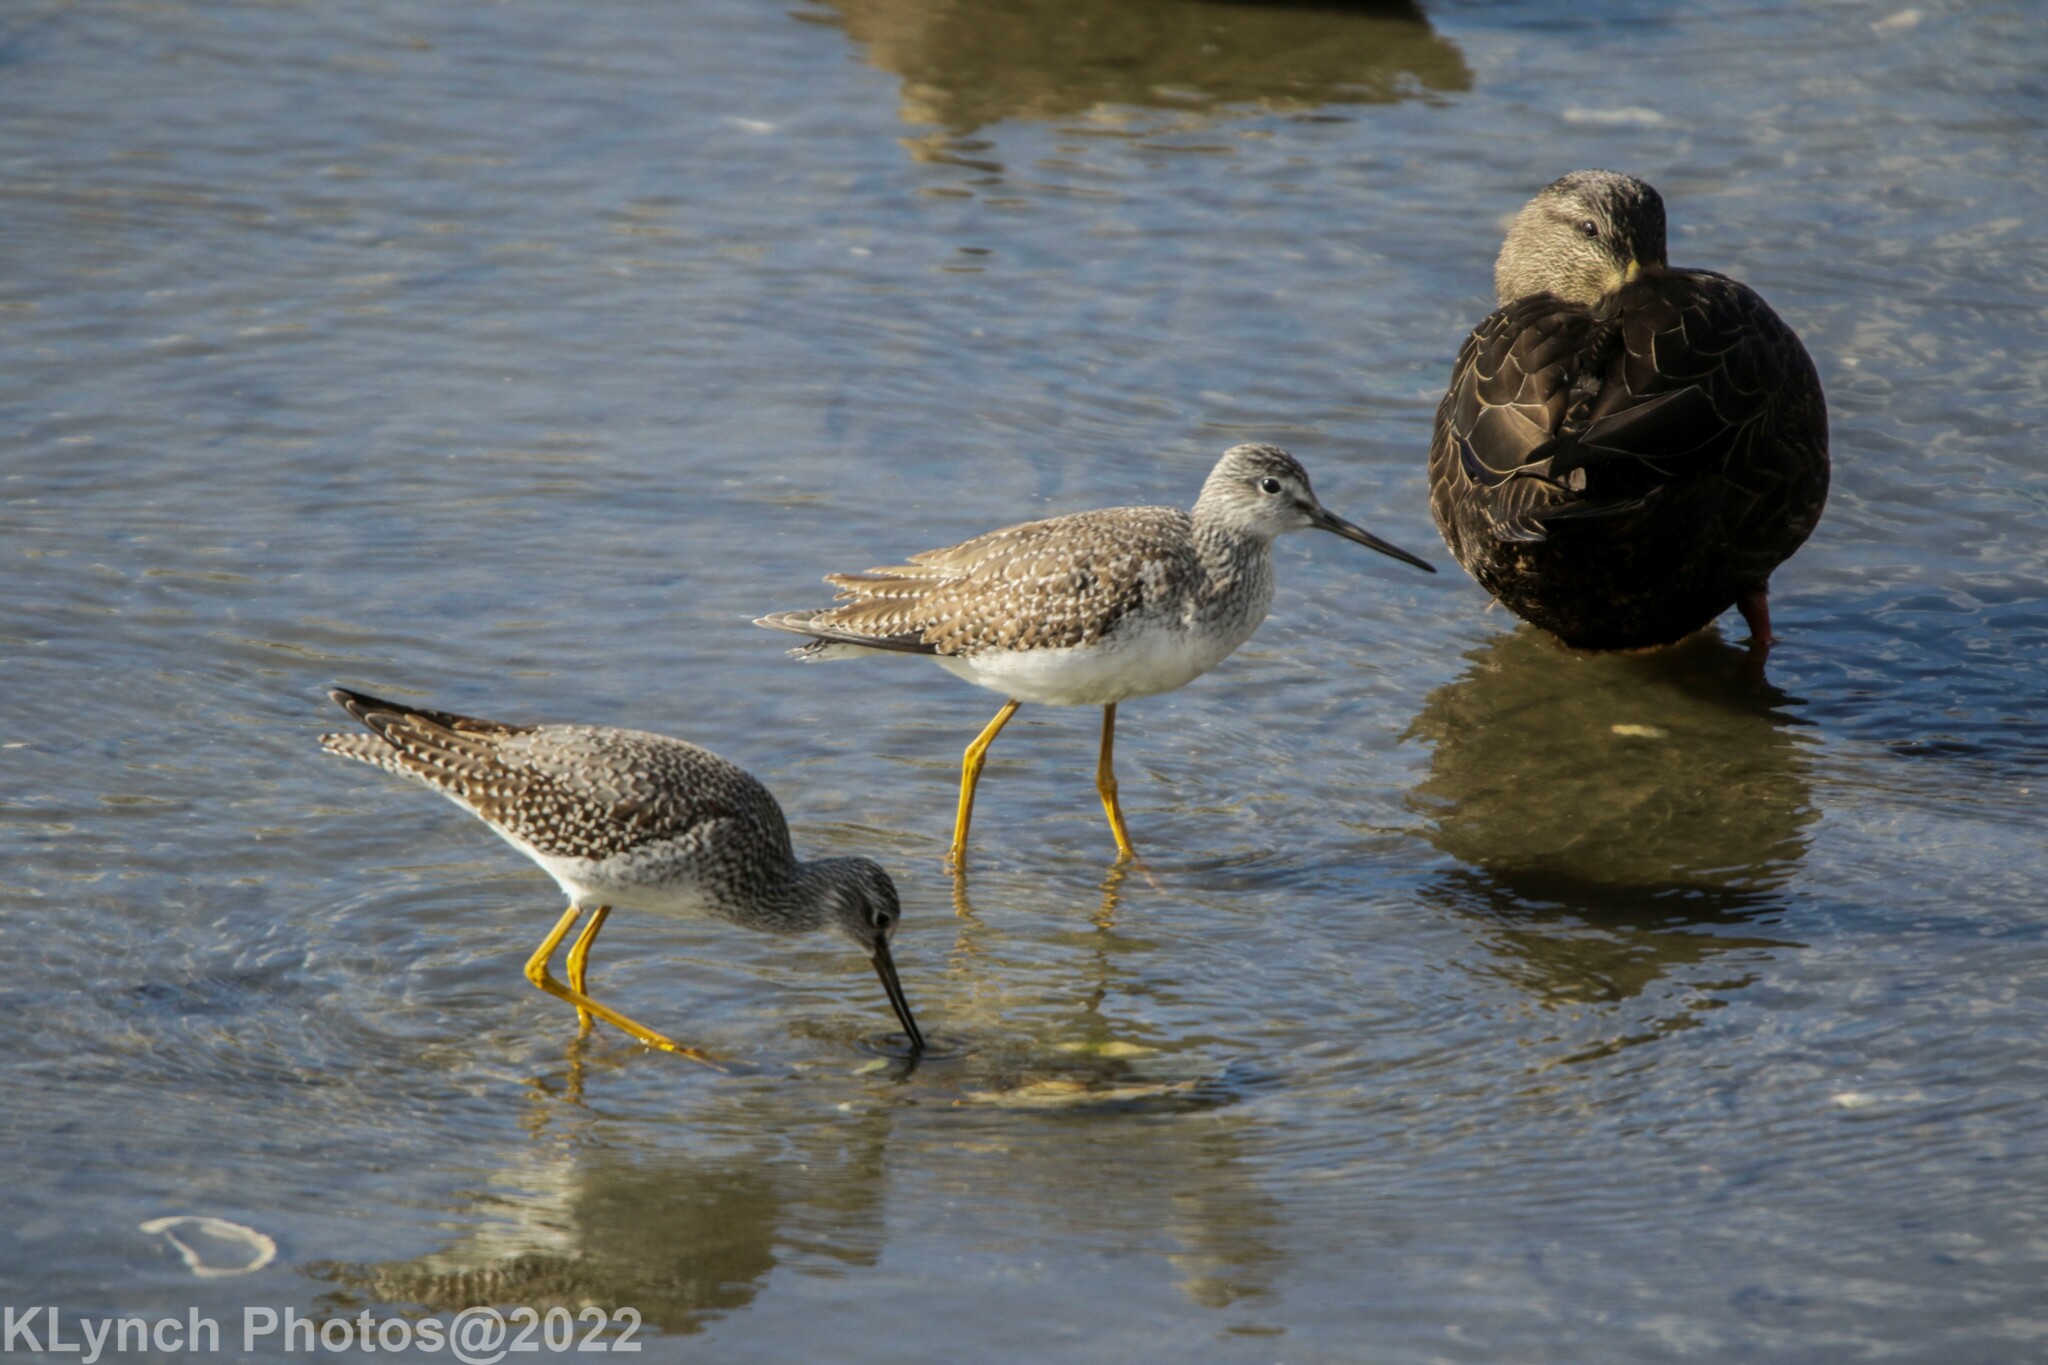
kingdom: Animalia
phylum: Chordata
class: Aves
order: Charadriiformes
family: Scolopacidae
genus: Tringa
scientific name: Tringa melanoleuca
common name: Greater yellowlegs
